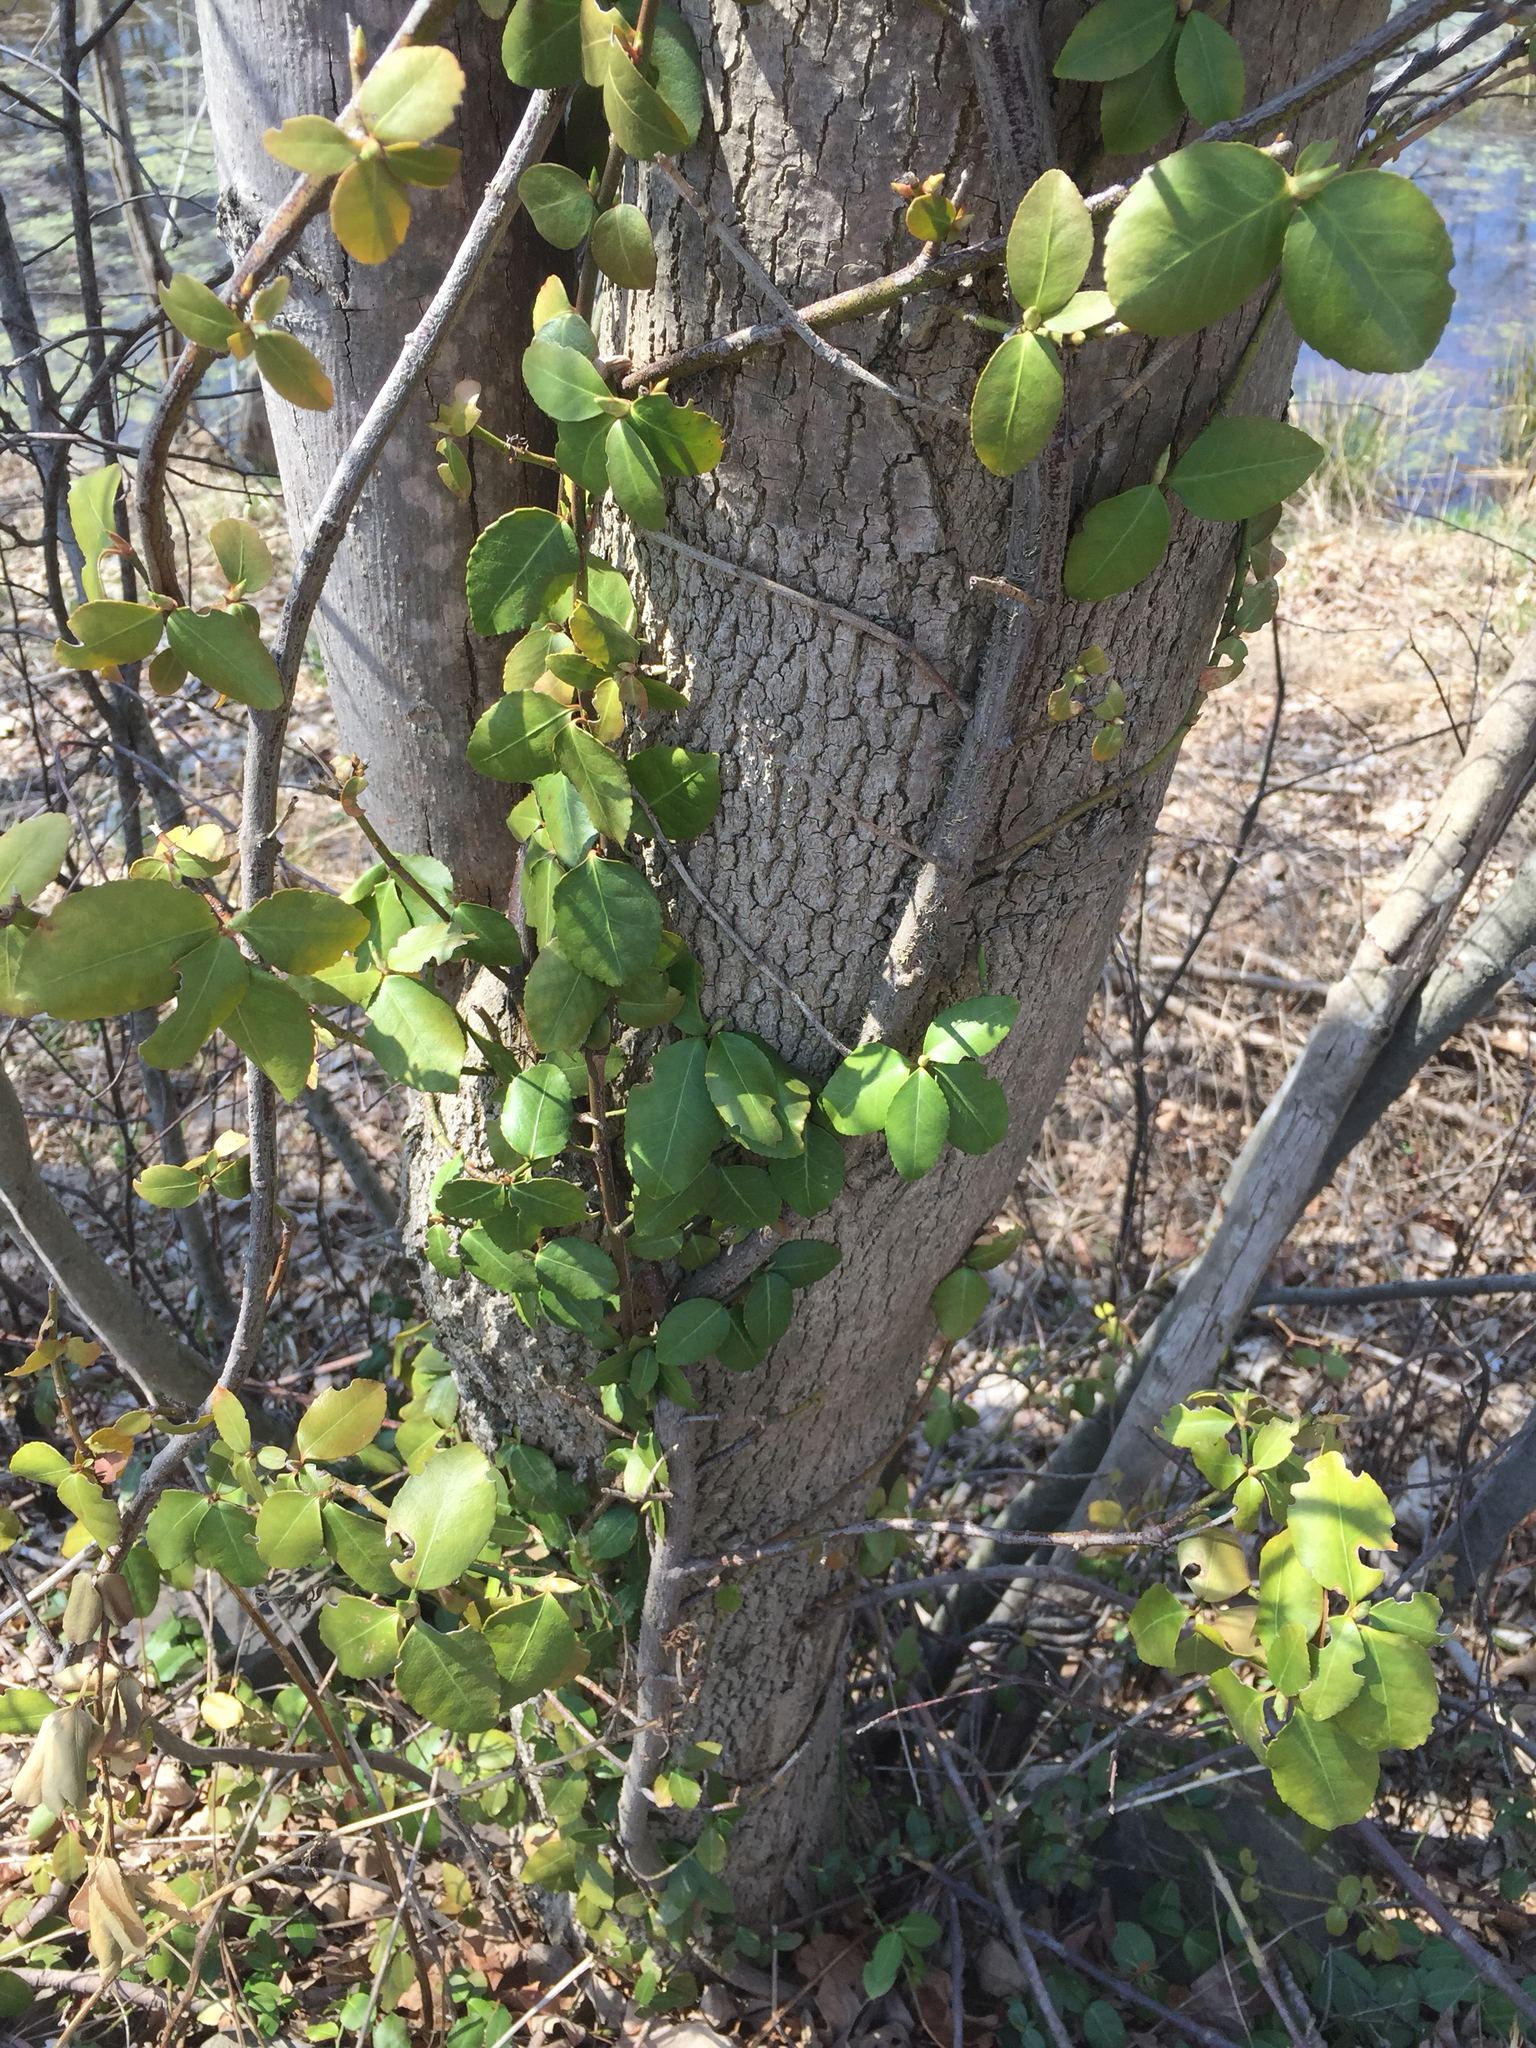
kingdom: Plantae
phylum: Tracheophyta
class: Magnoliopsida
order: Celastrales
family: Celastraceae
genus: Euonymus
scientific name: Euonymus fortunei
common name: Climbing euonymus
